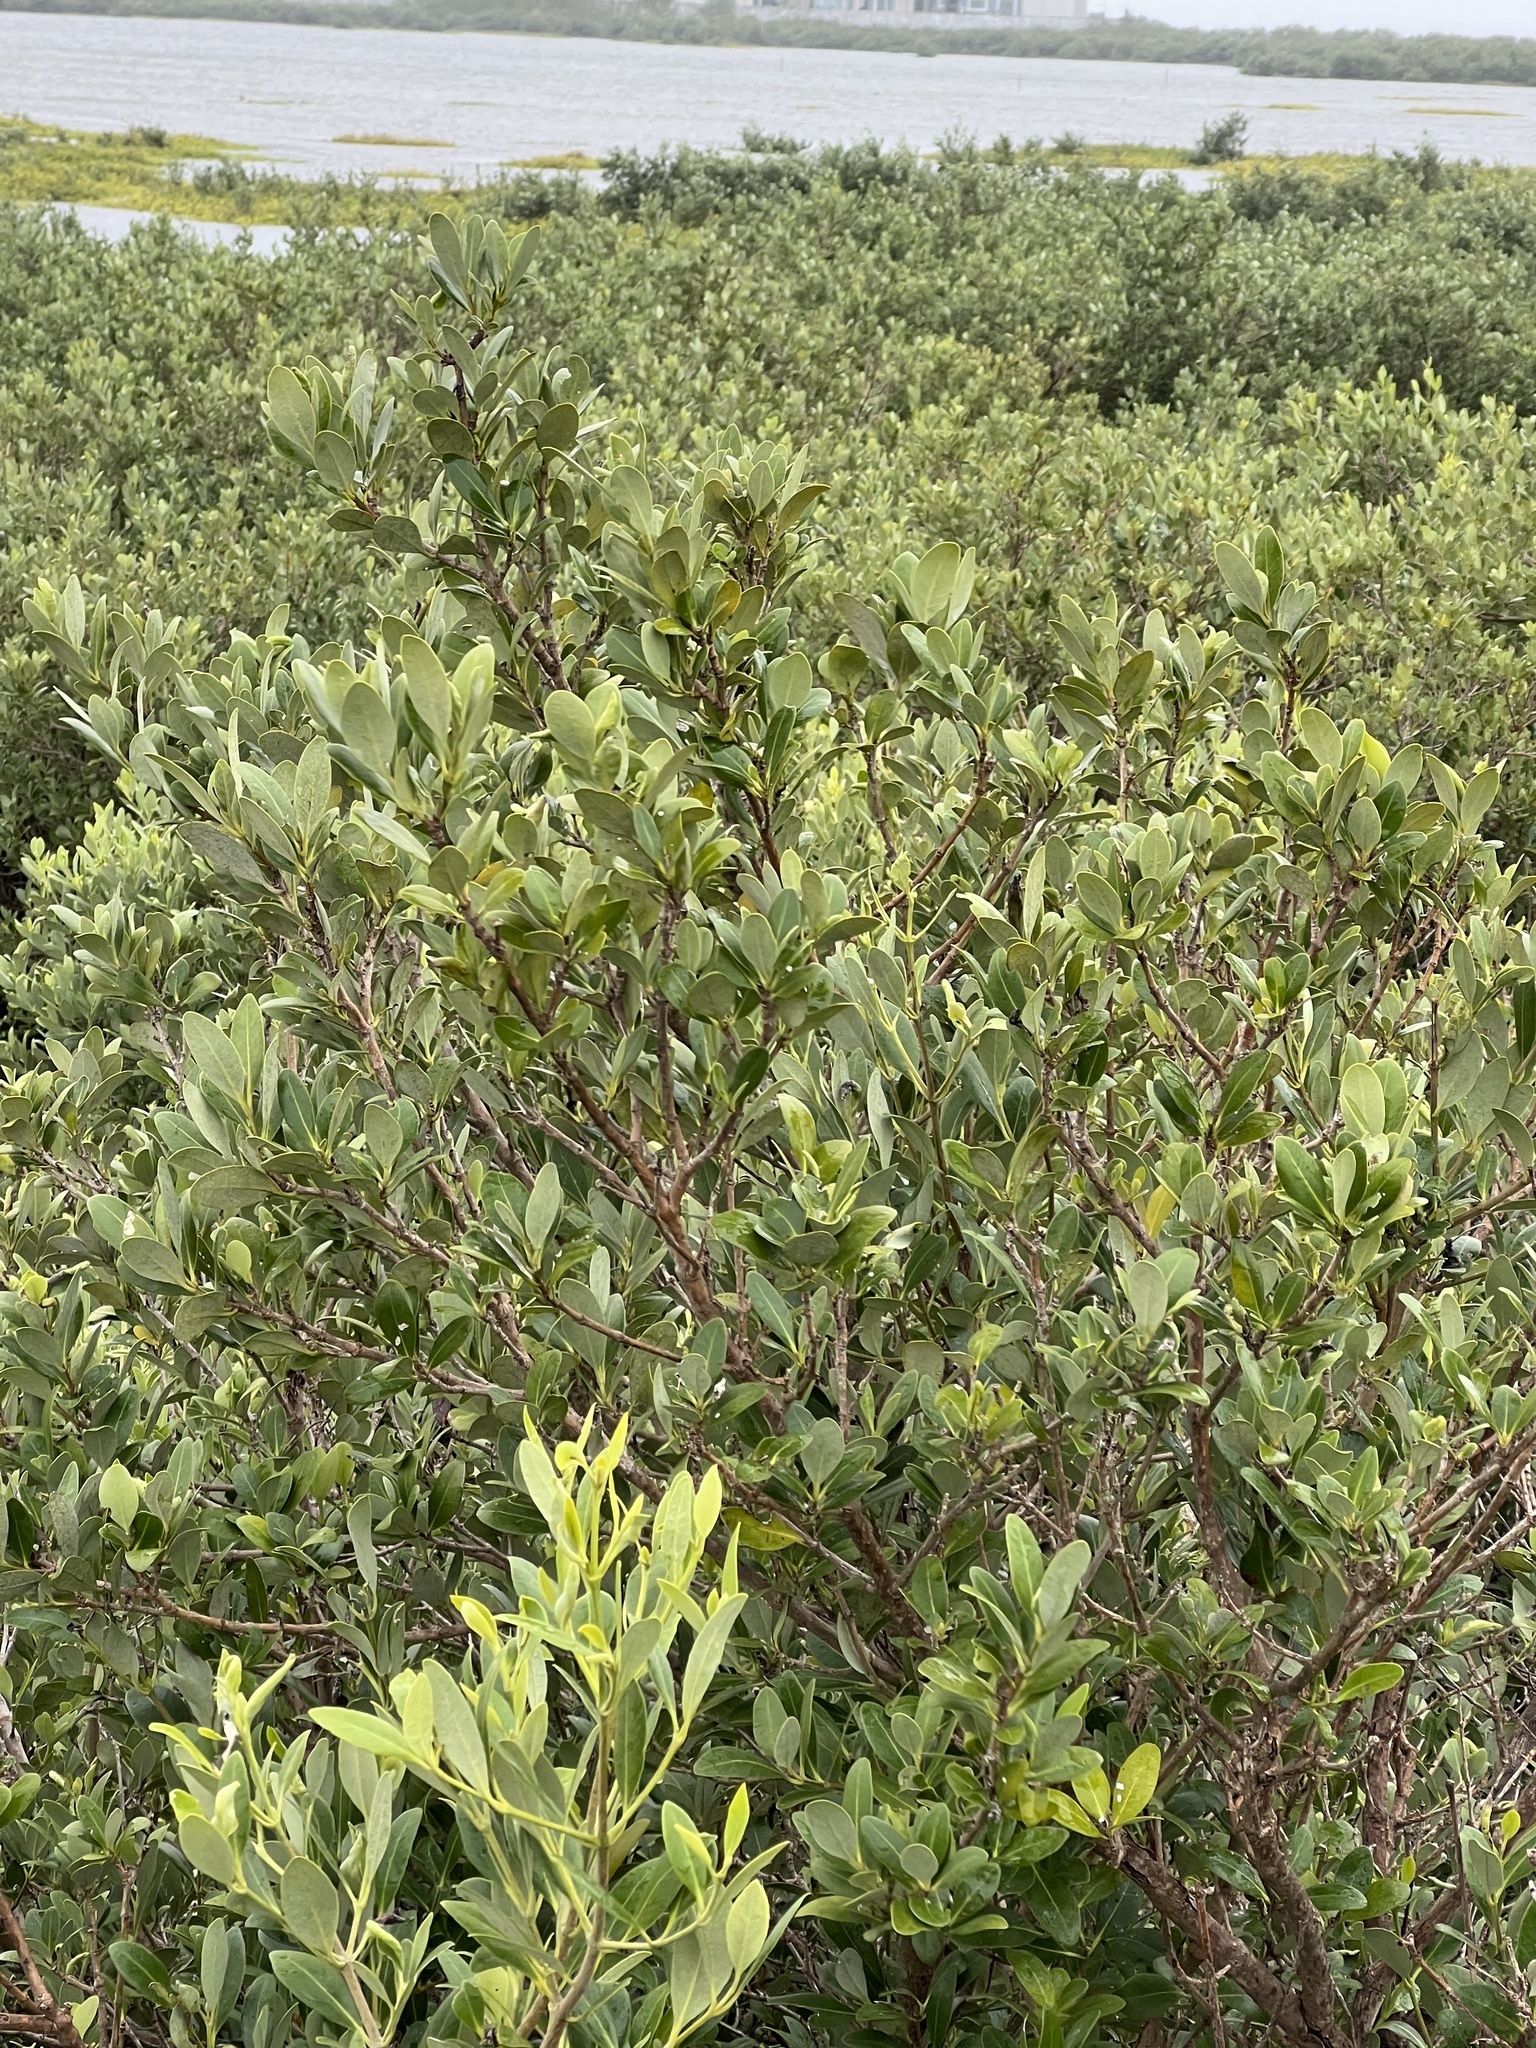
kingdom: Plantae
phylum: Tracheophyta
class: Magnoliopsida
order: Lamiales
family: Acanthaceae
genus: Avicennia
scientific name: Avicennia germinans
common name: Black mangrove
